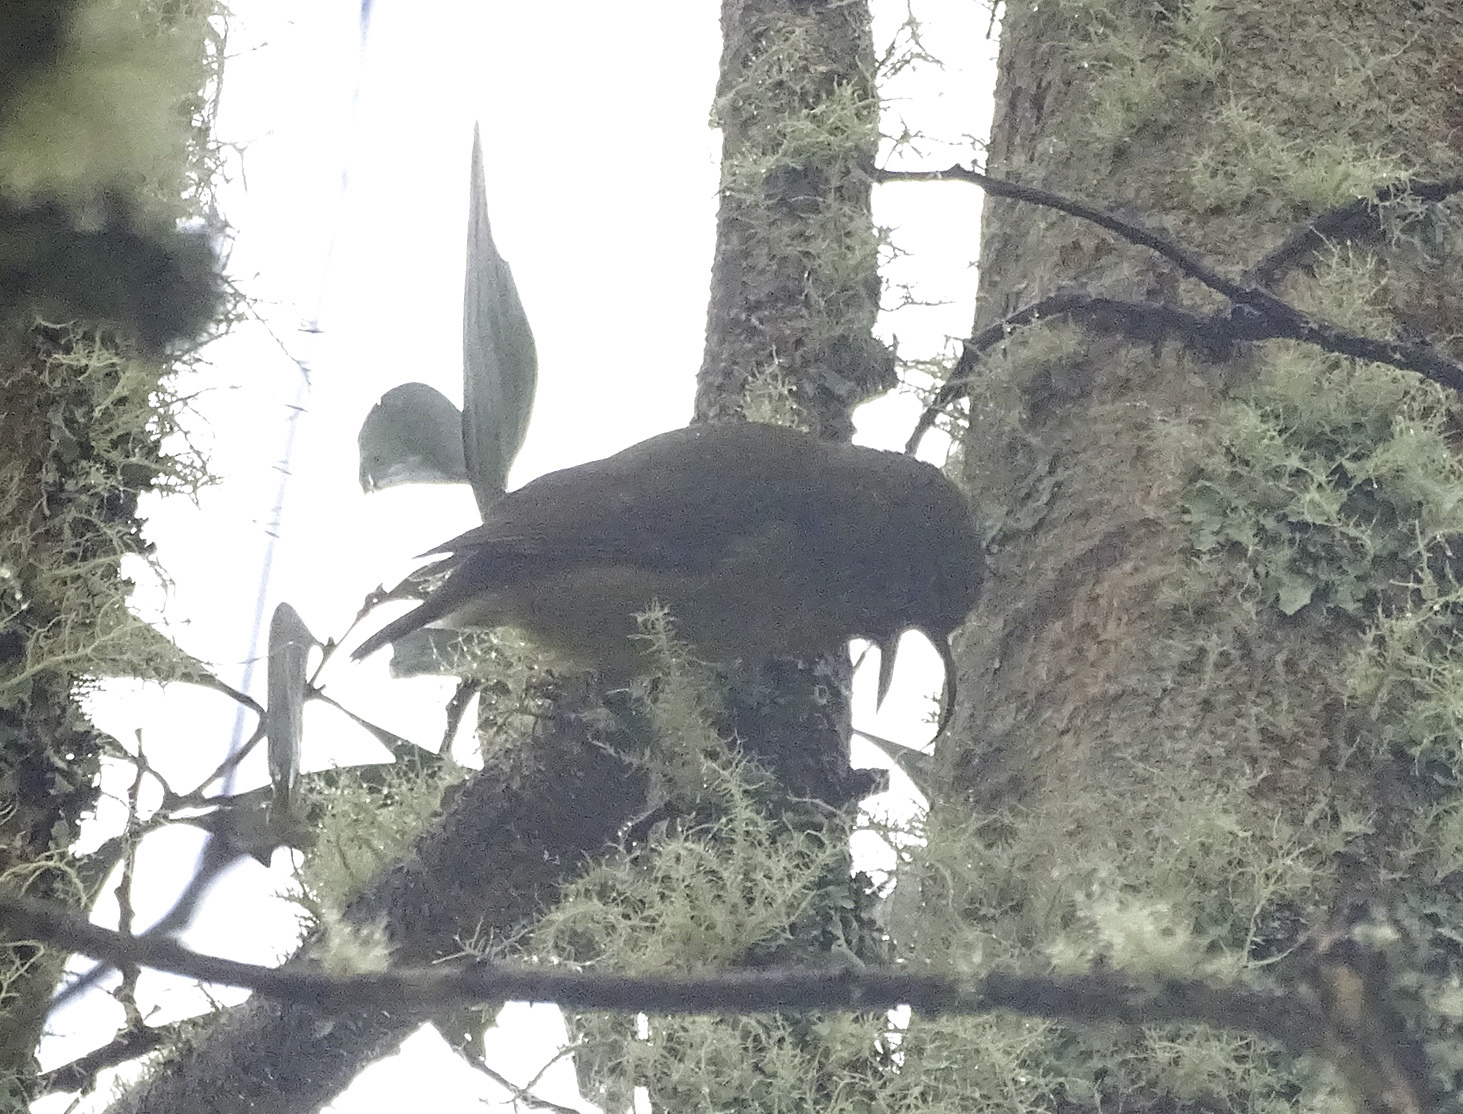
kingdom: Animalia
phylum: Chordata
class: Aves
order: Passeriformes
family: Fringillidae
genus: Hemignathus
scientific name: Hemignathus wilsoni
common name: Akiapolaau
